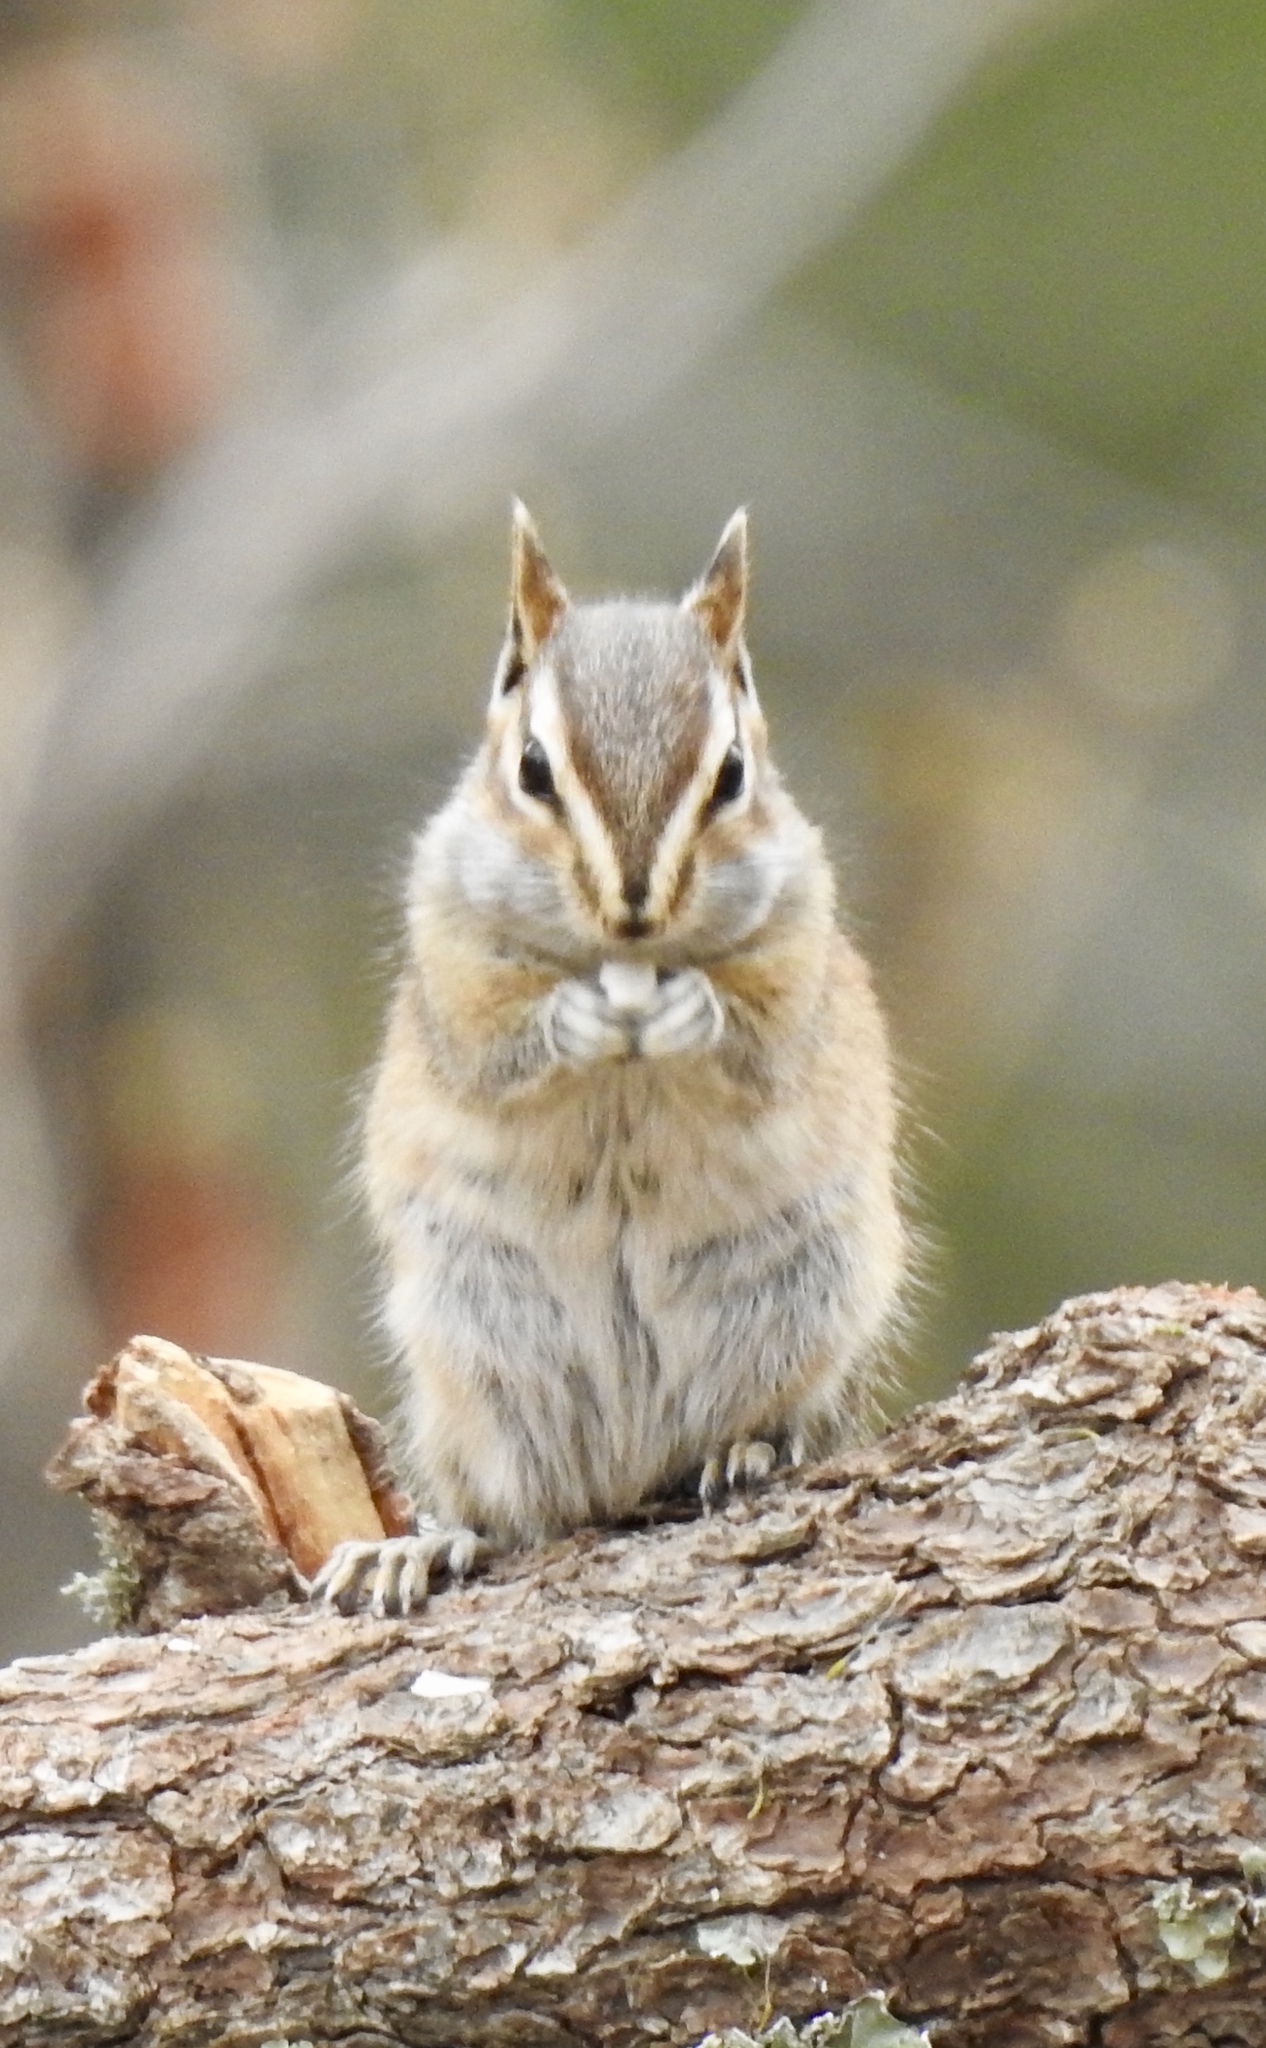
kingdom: Animalia
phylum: Chordata
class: Mammalia
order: Rodentia
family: Sciuridae
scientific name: Sciuridae
